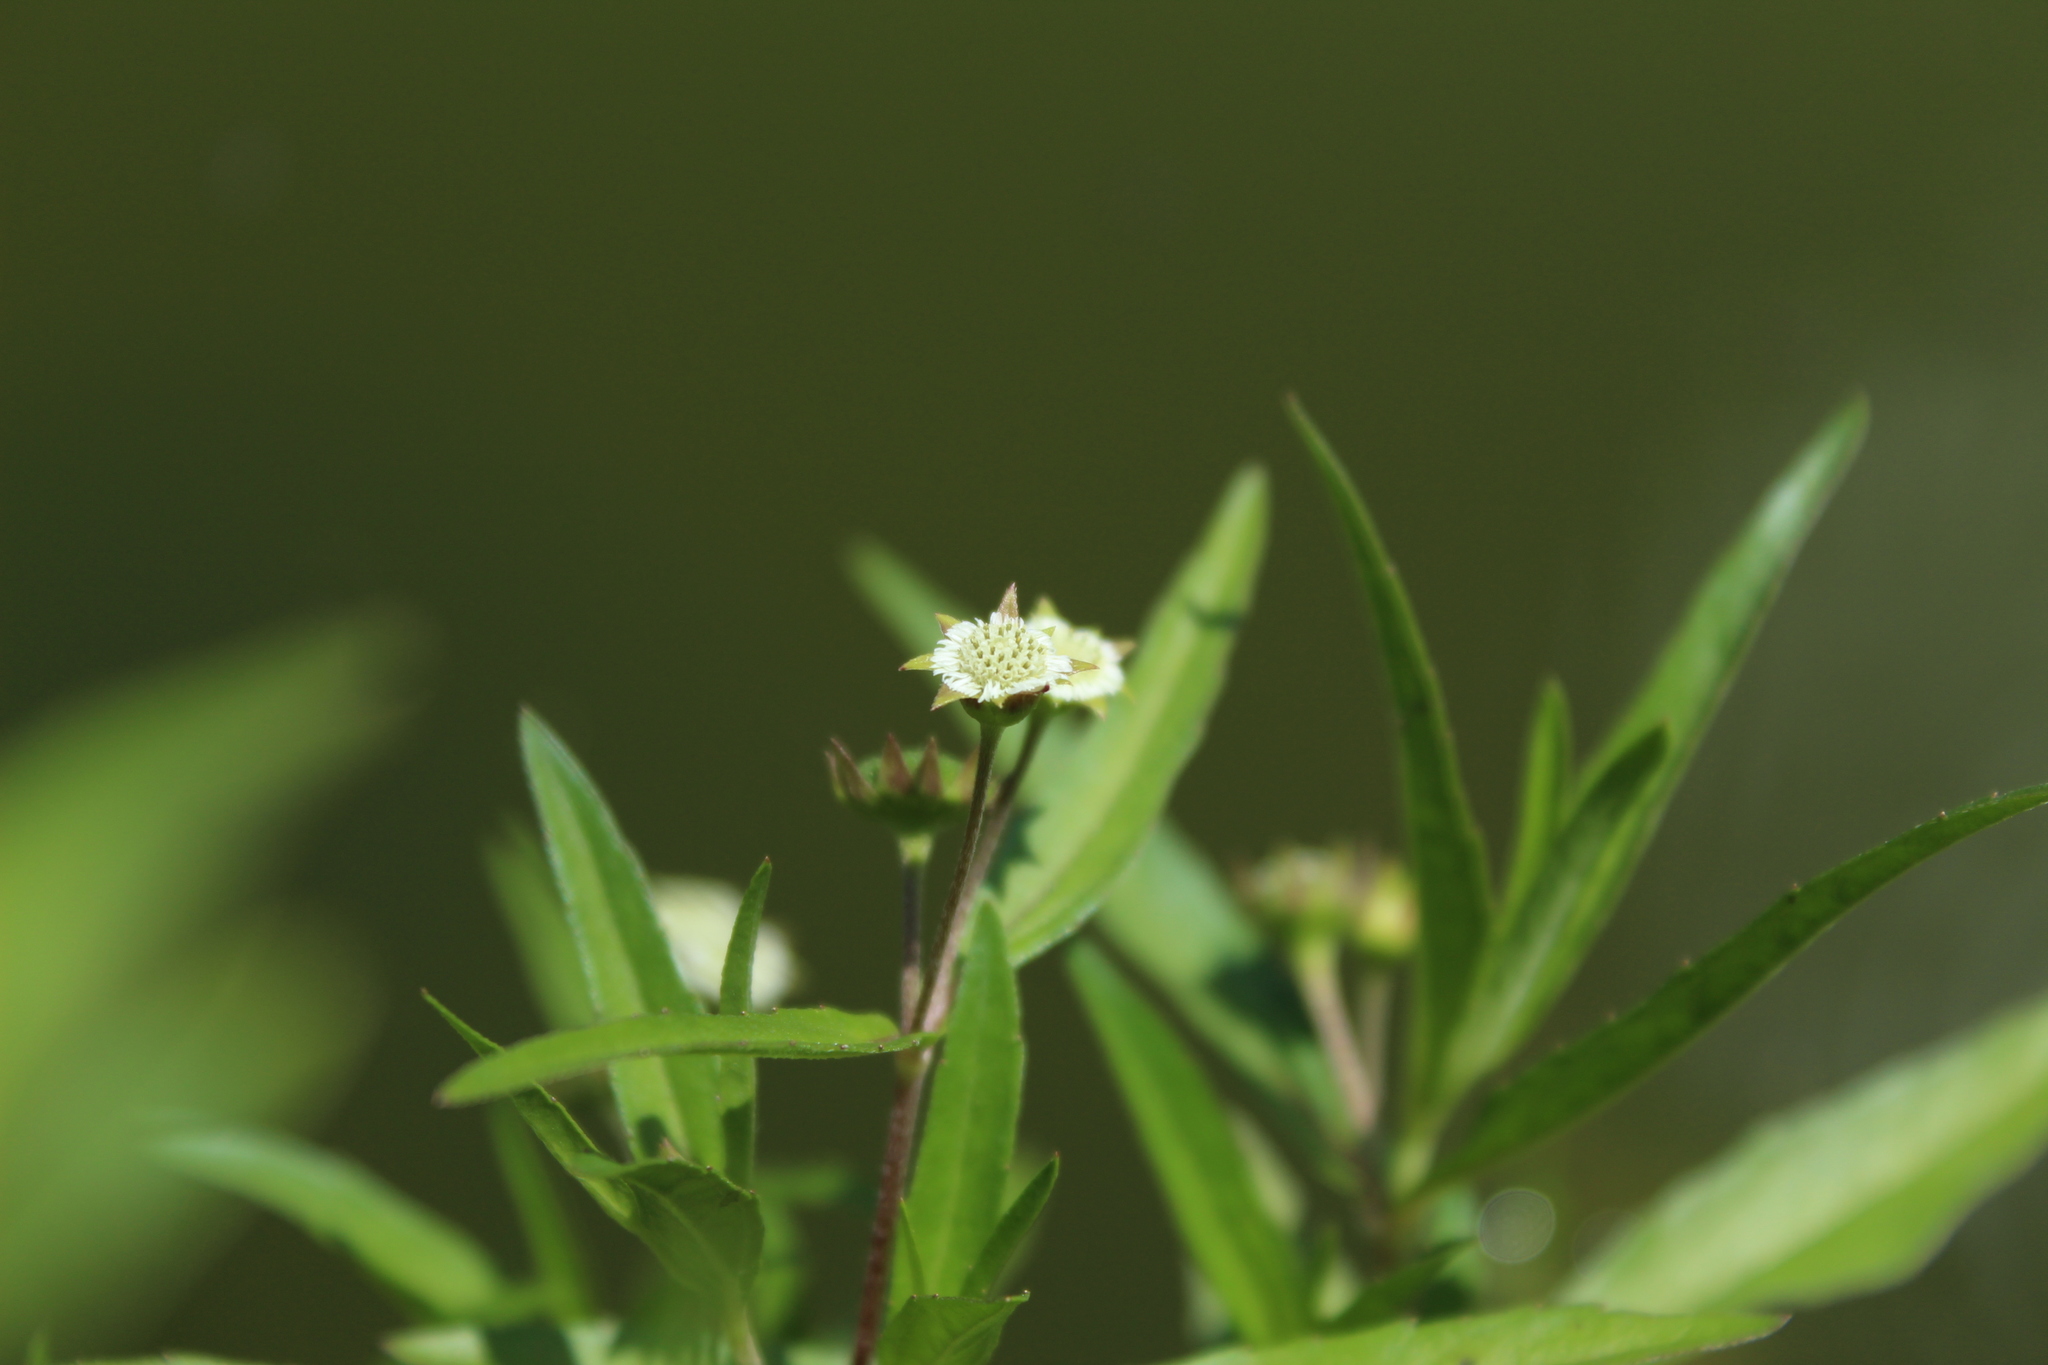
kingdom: Plantae
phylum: Tracheophyta
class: Magnoliopsida
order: Asterales
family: Asteraceae
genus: Eclipta
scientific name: Eclipta prostrata
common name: False daisy
